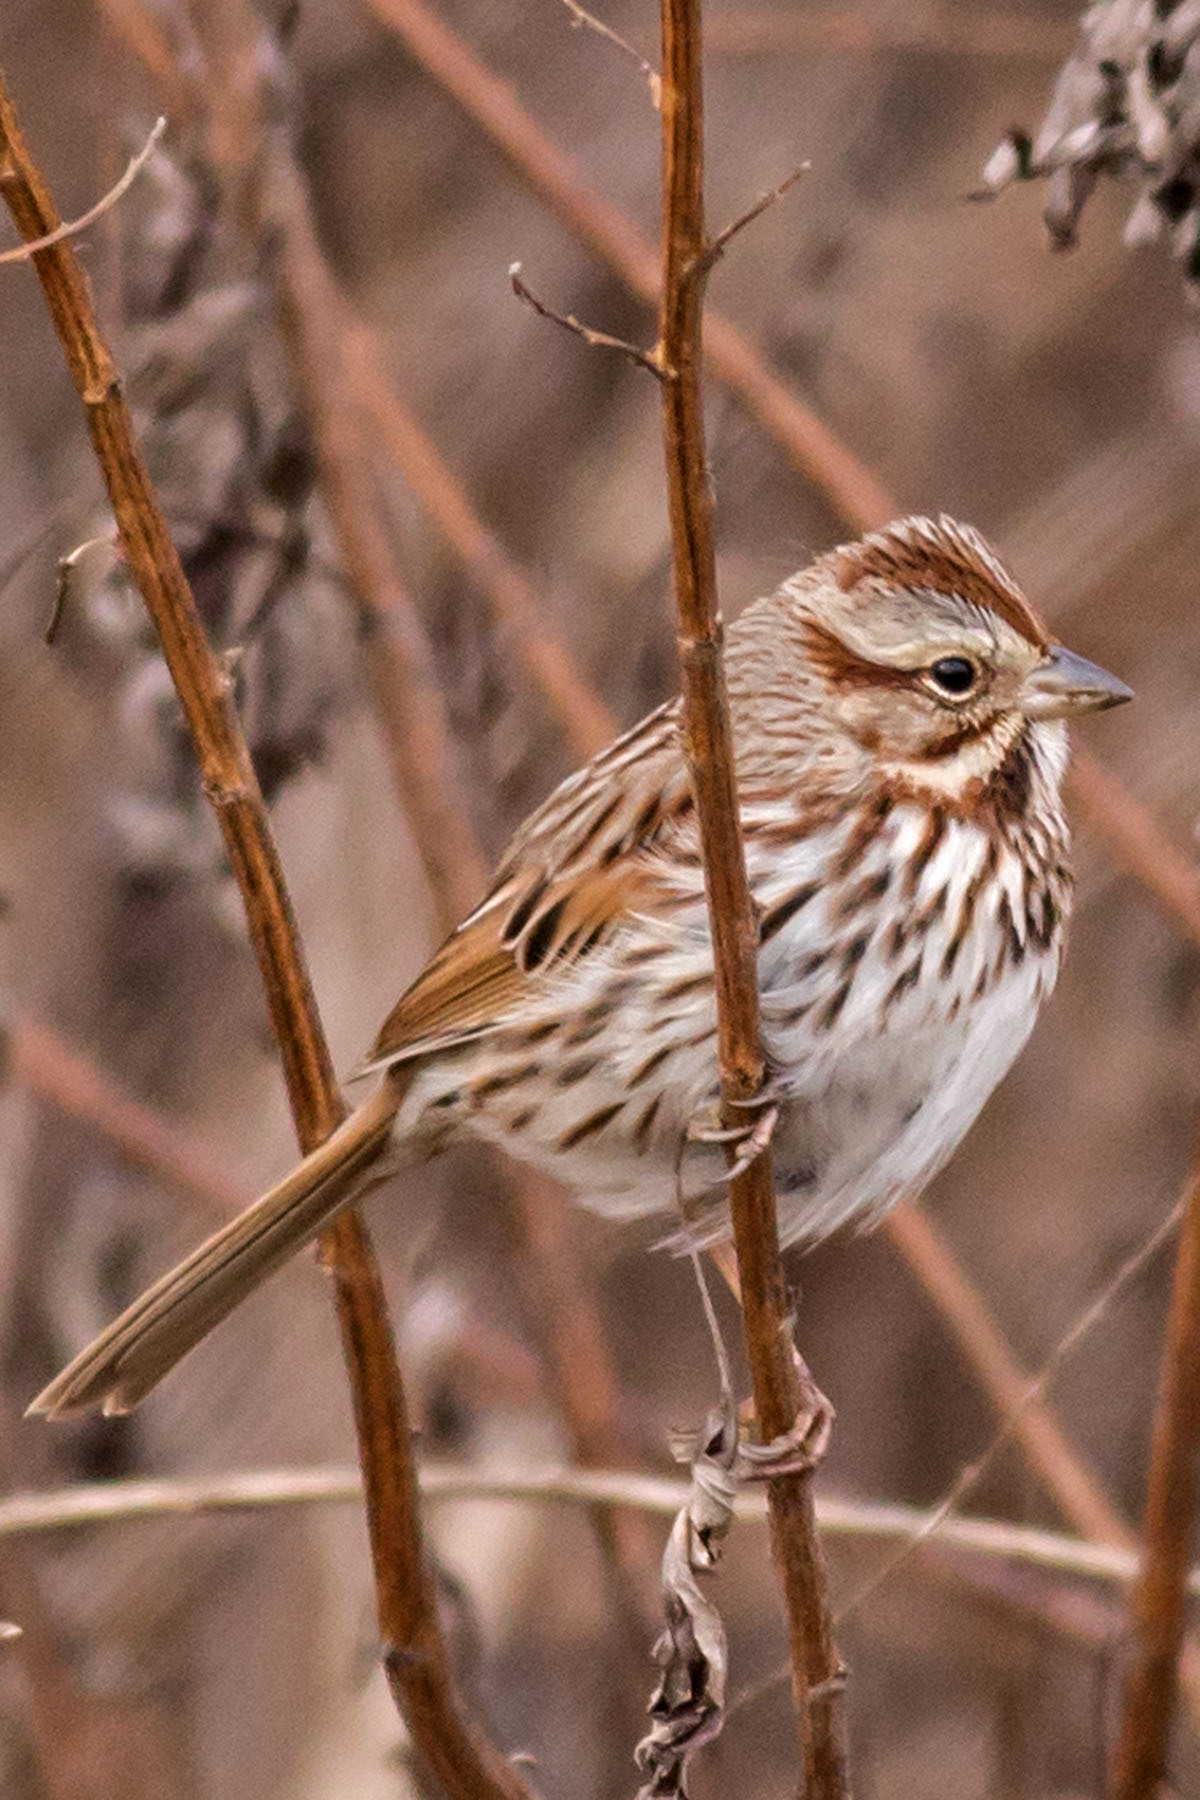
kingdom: Animalia
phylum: Chordata
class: Aves
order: Passeriformes
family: Passerellidae
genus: Melospiza
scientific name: Melospiza melodia
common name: Song sparrow
